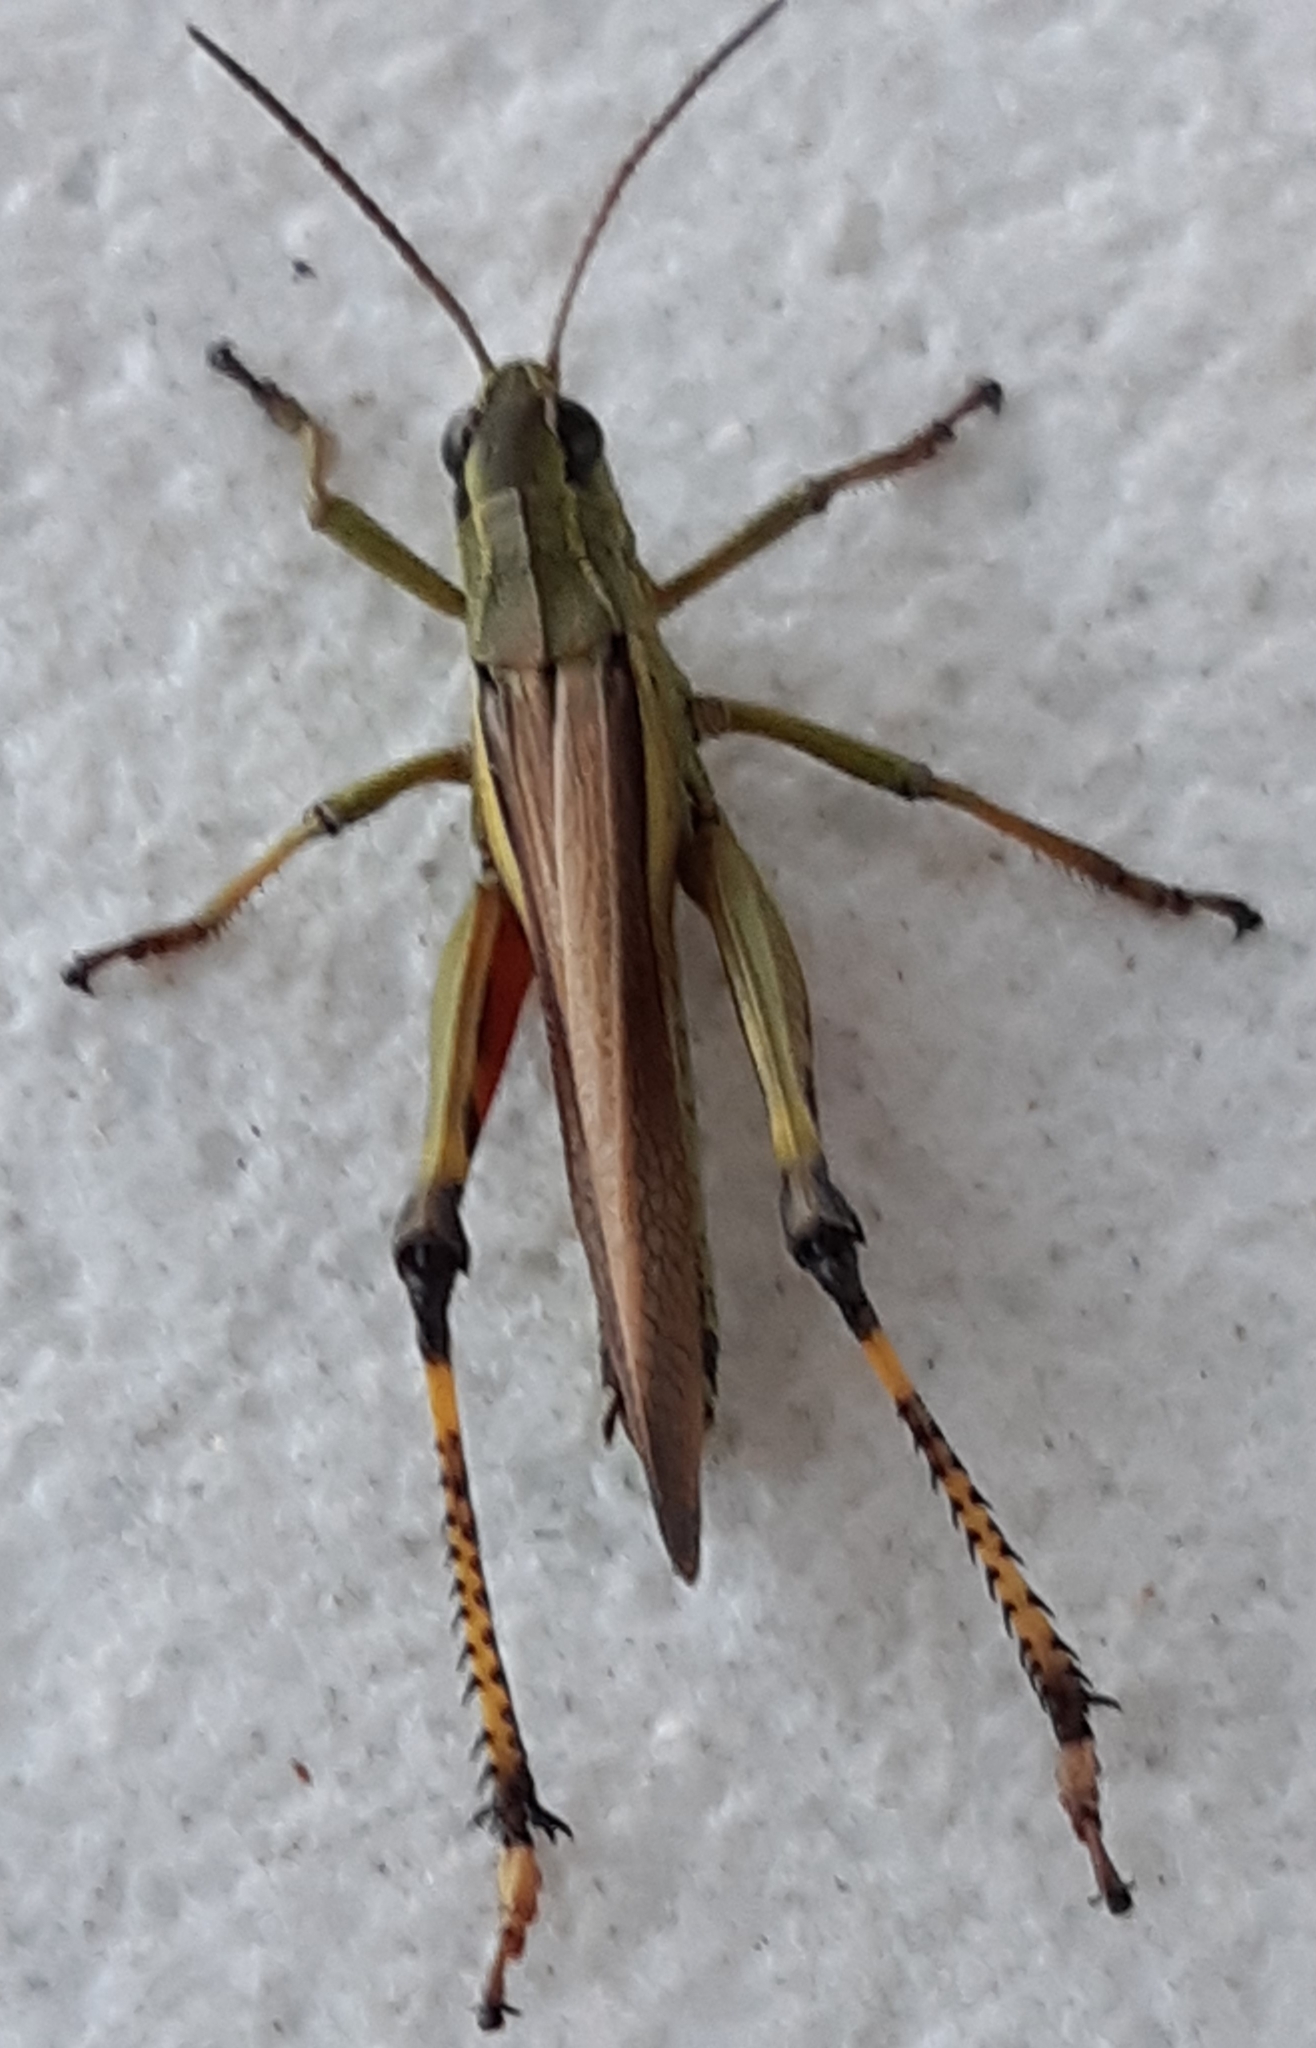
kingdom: Animalia
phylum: Arthropoda
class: Insecta
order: Orthoptera
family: Acrididae
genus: Stethophyma
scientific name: Stethophyma grossum
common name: Large marsh grasshopper
